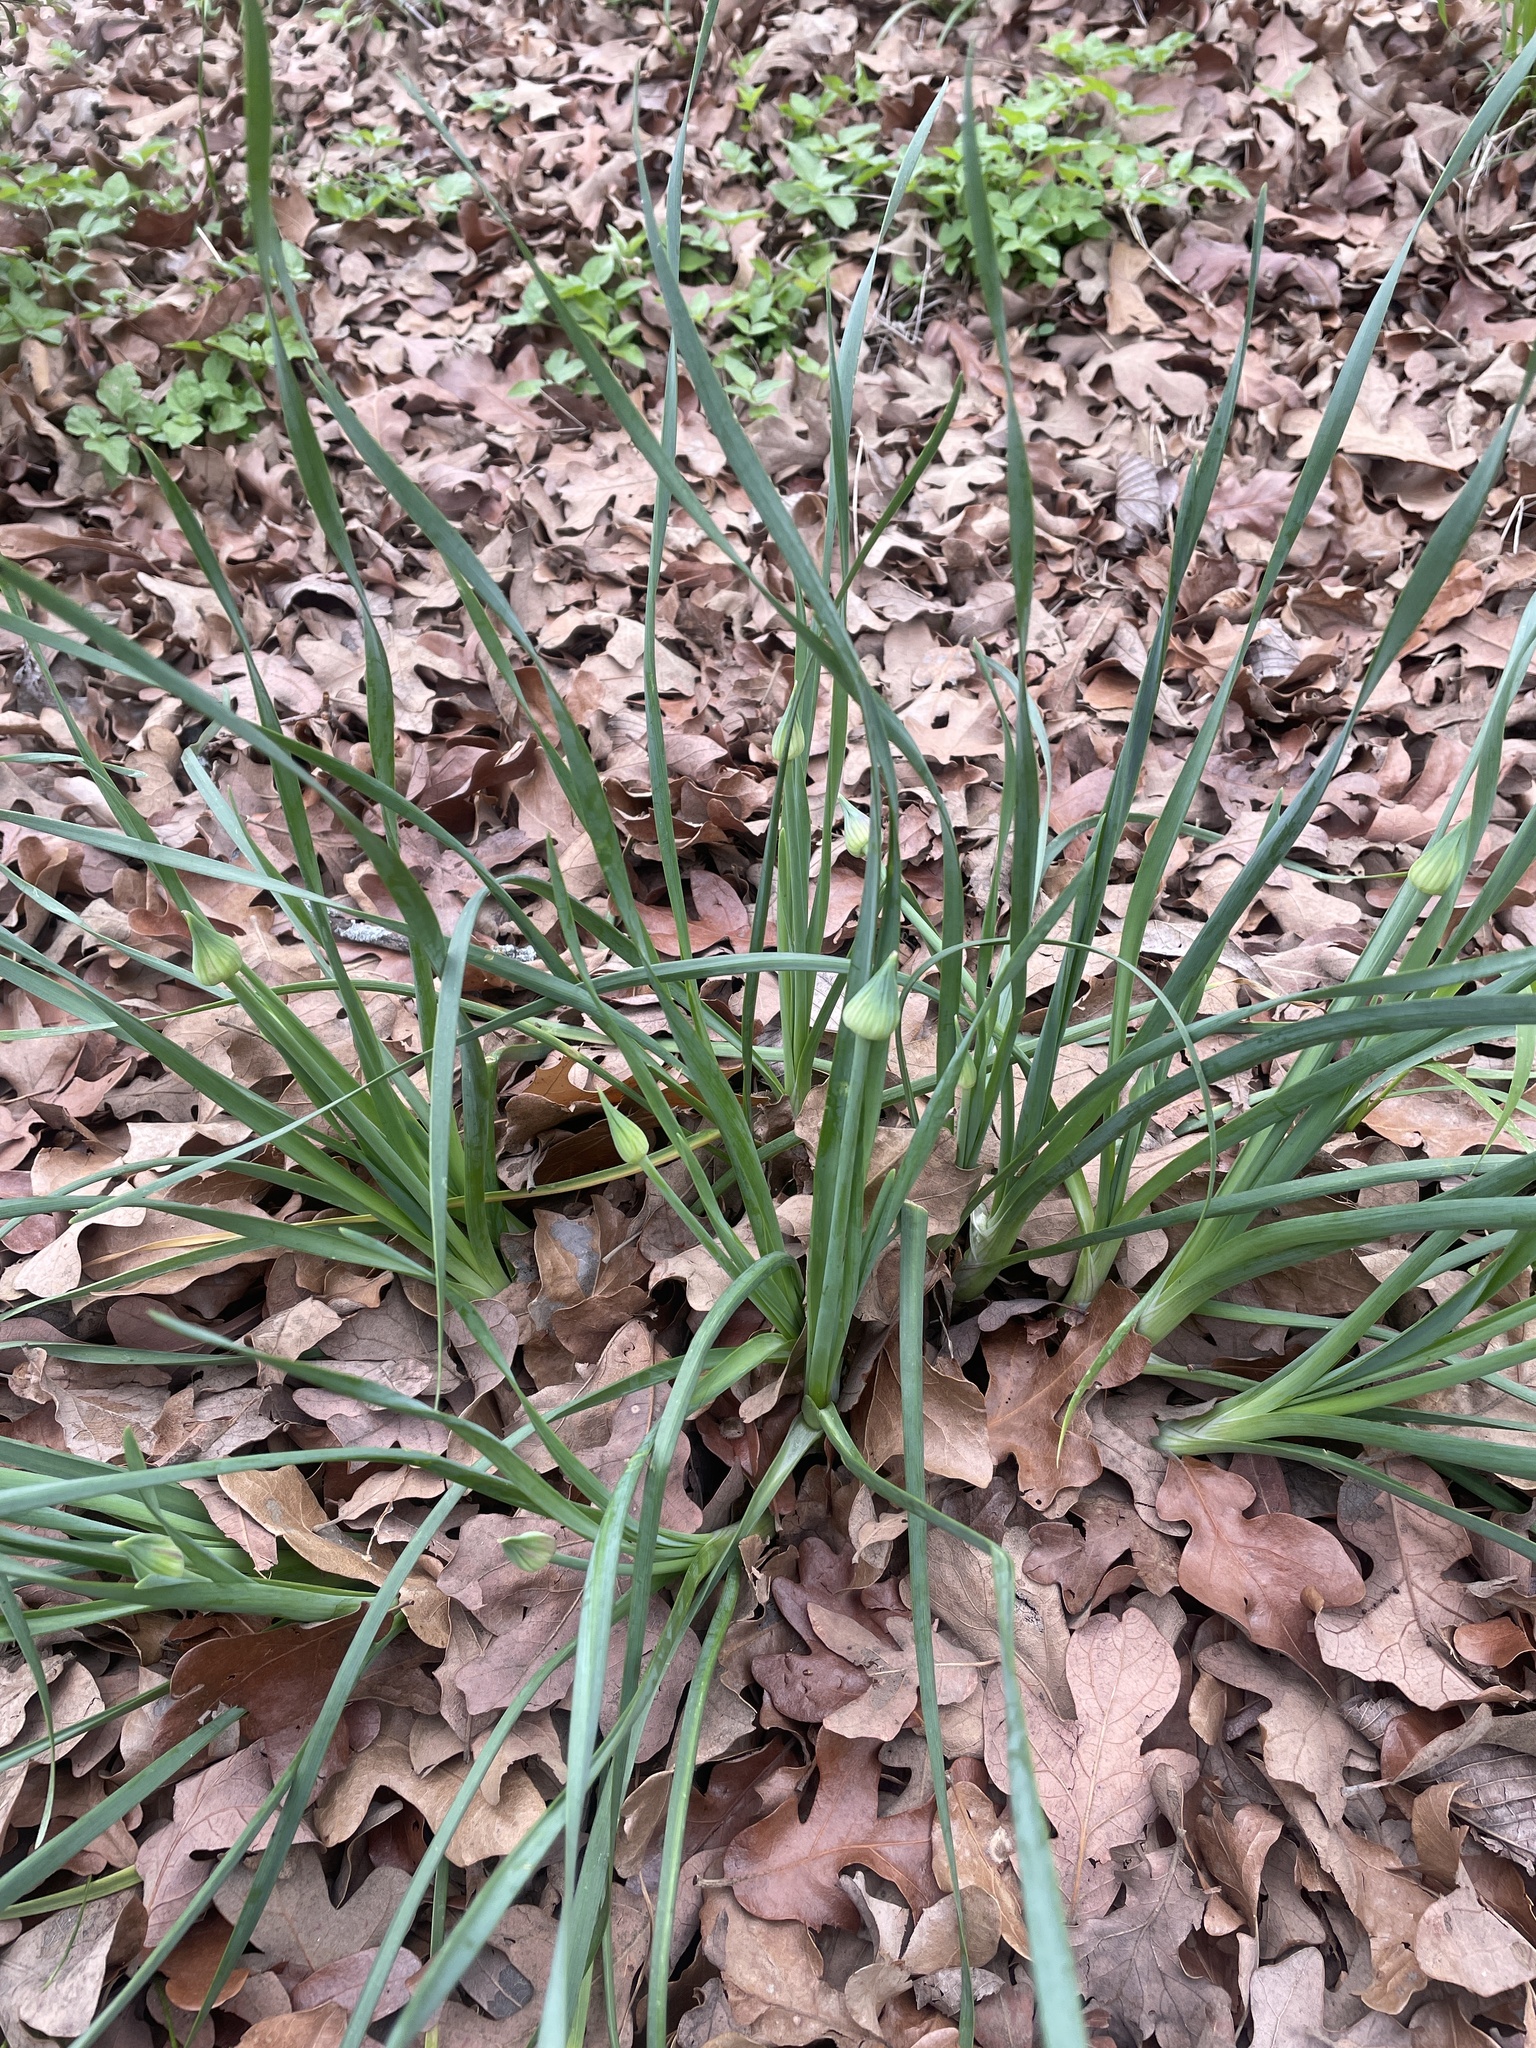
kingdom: Plantae
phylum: Tracheophyta
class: Liliopsida
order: Asparagales
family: Amaryllidaceae
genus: Allium
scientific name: Allium canadense
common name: Meadow garlic
